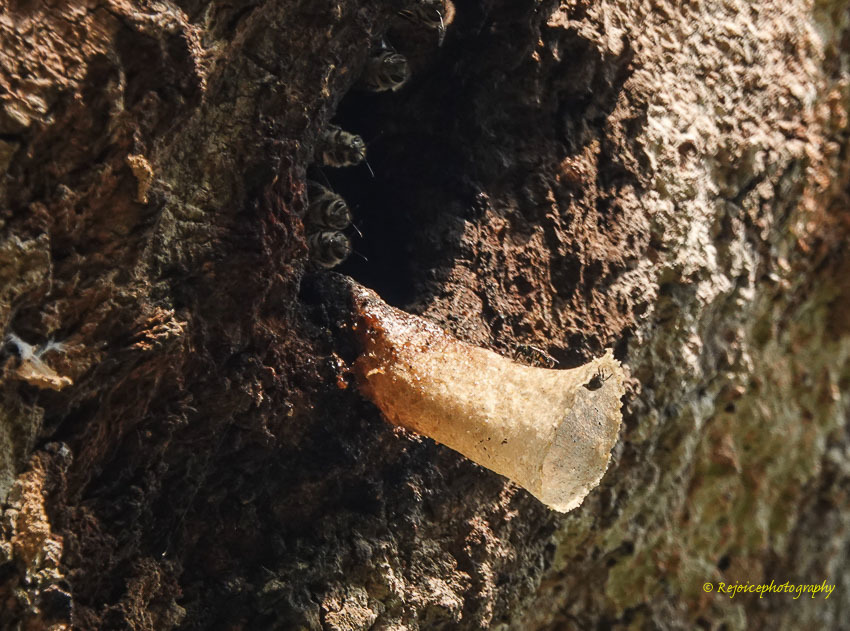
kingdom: Animalia
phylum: Arthropoda
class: Insecta
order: Hymenoptera
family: Apidae
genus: Lepidotrigona
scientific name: Lepidotrigona arcifera
